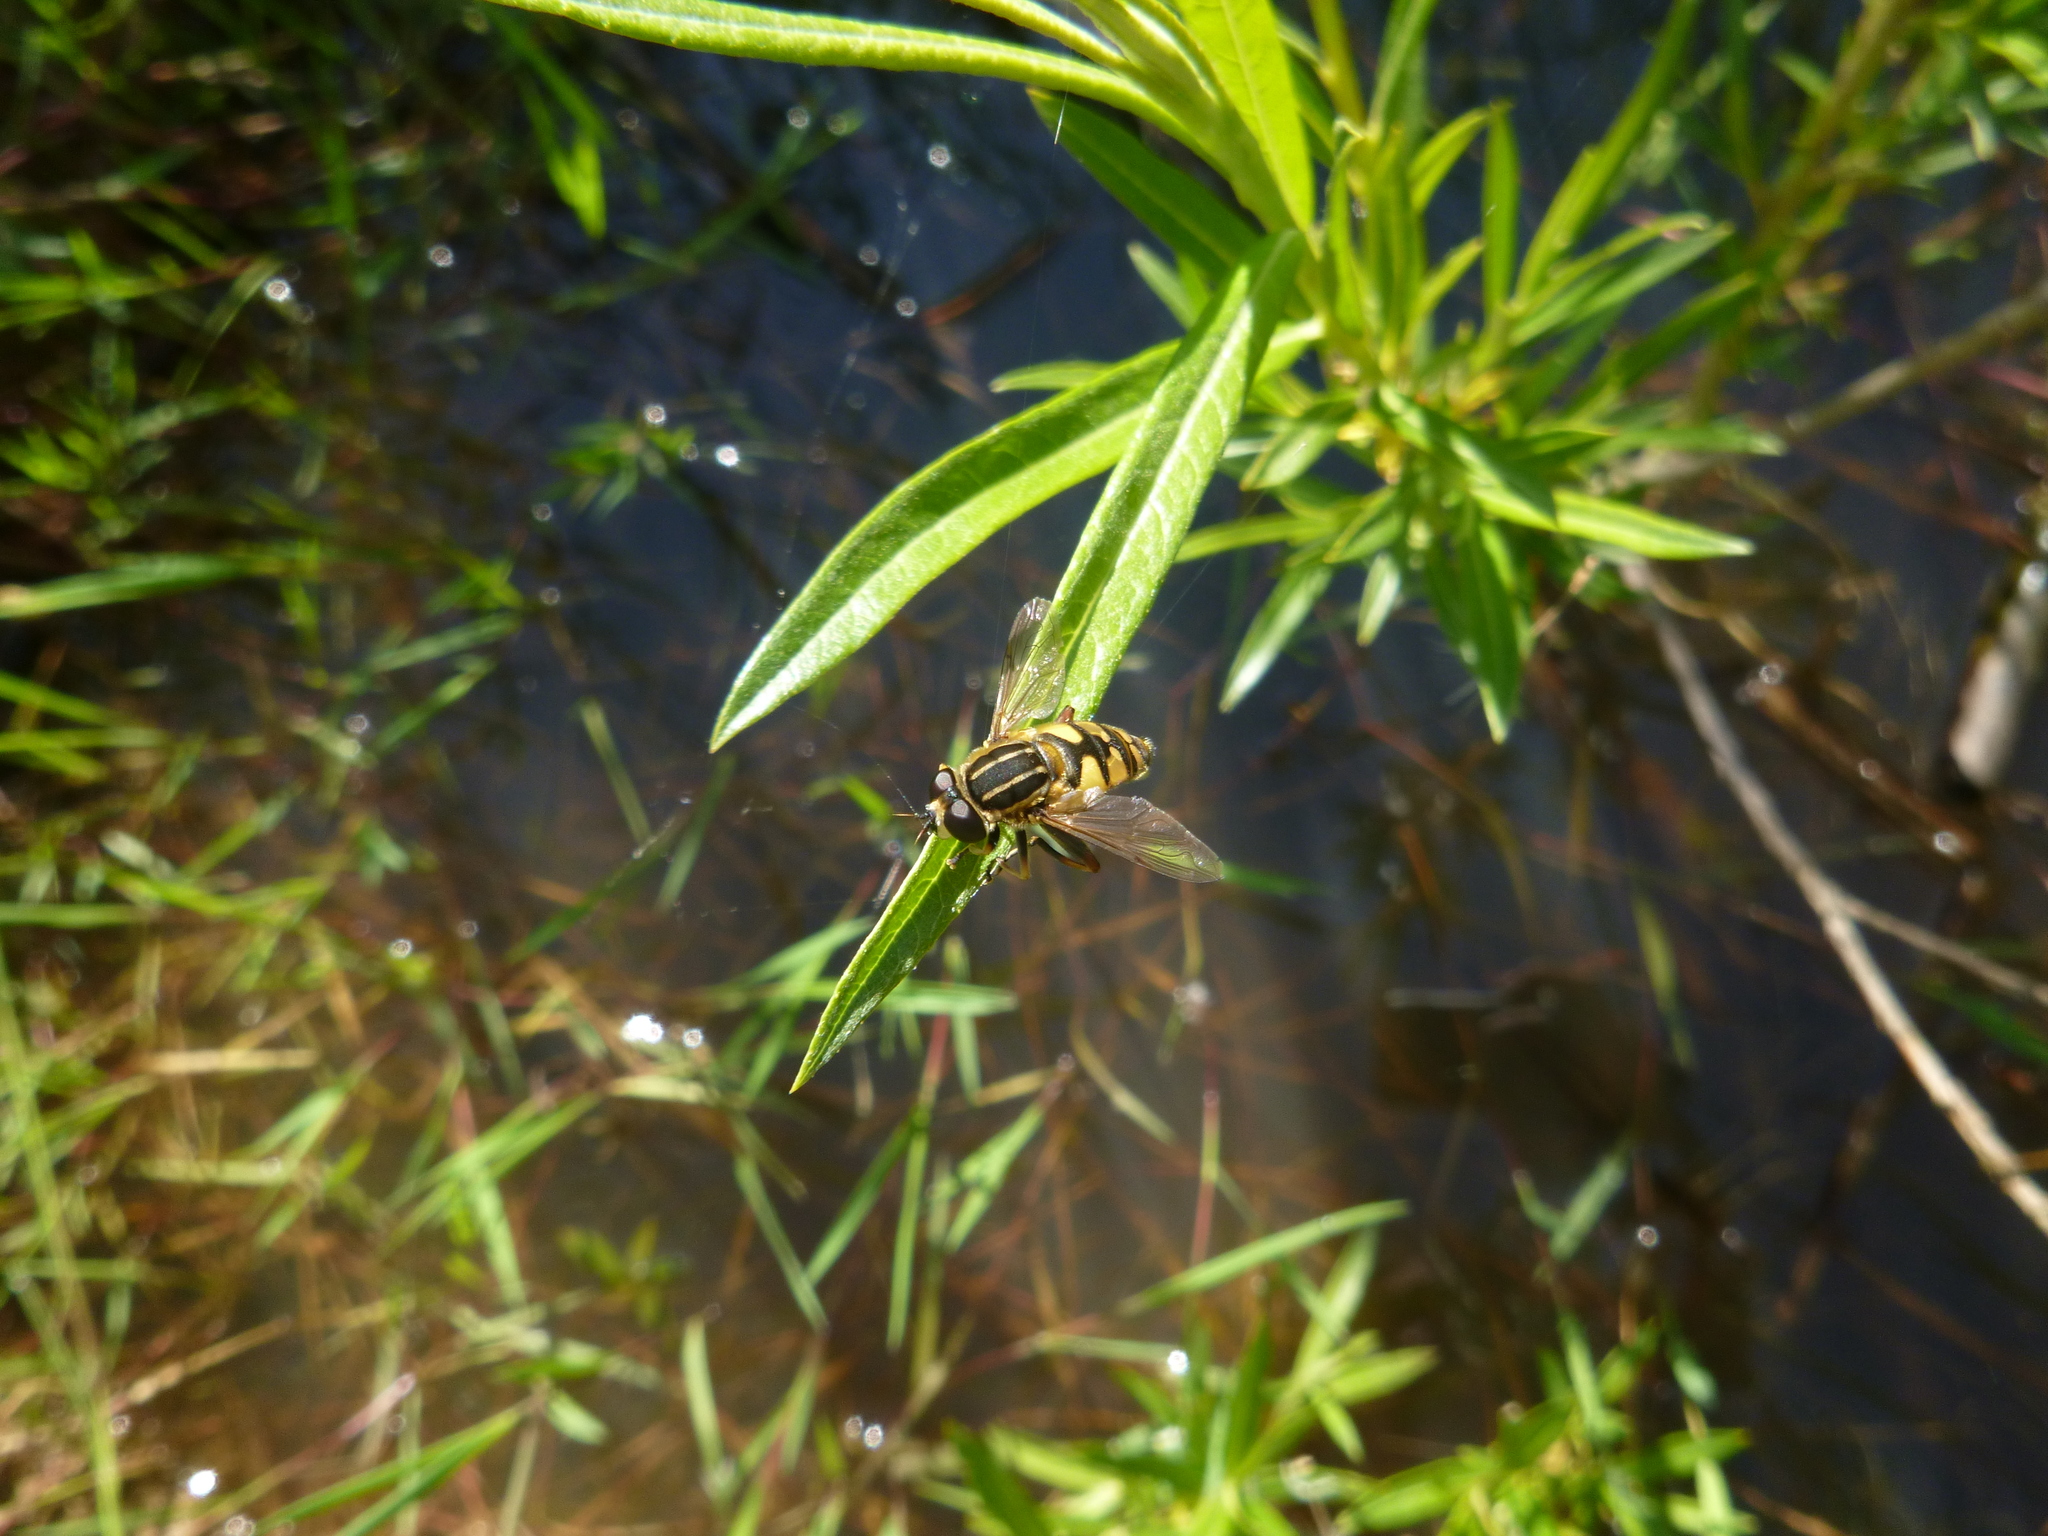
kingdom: Animalia
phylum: Arthropoda
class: Insecta
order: Diptera
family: Syrphidae
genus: Helophilus
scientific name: Helophilus pendulus
